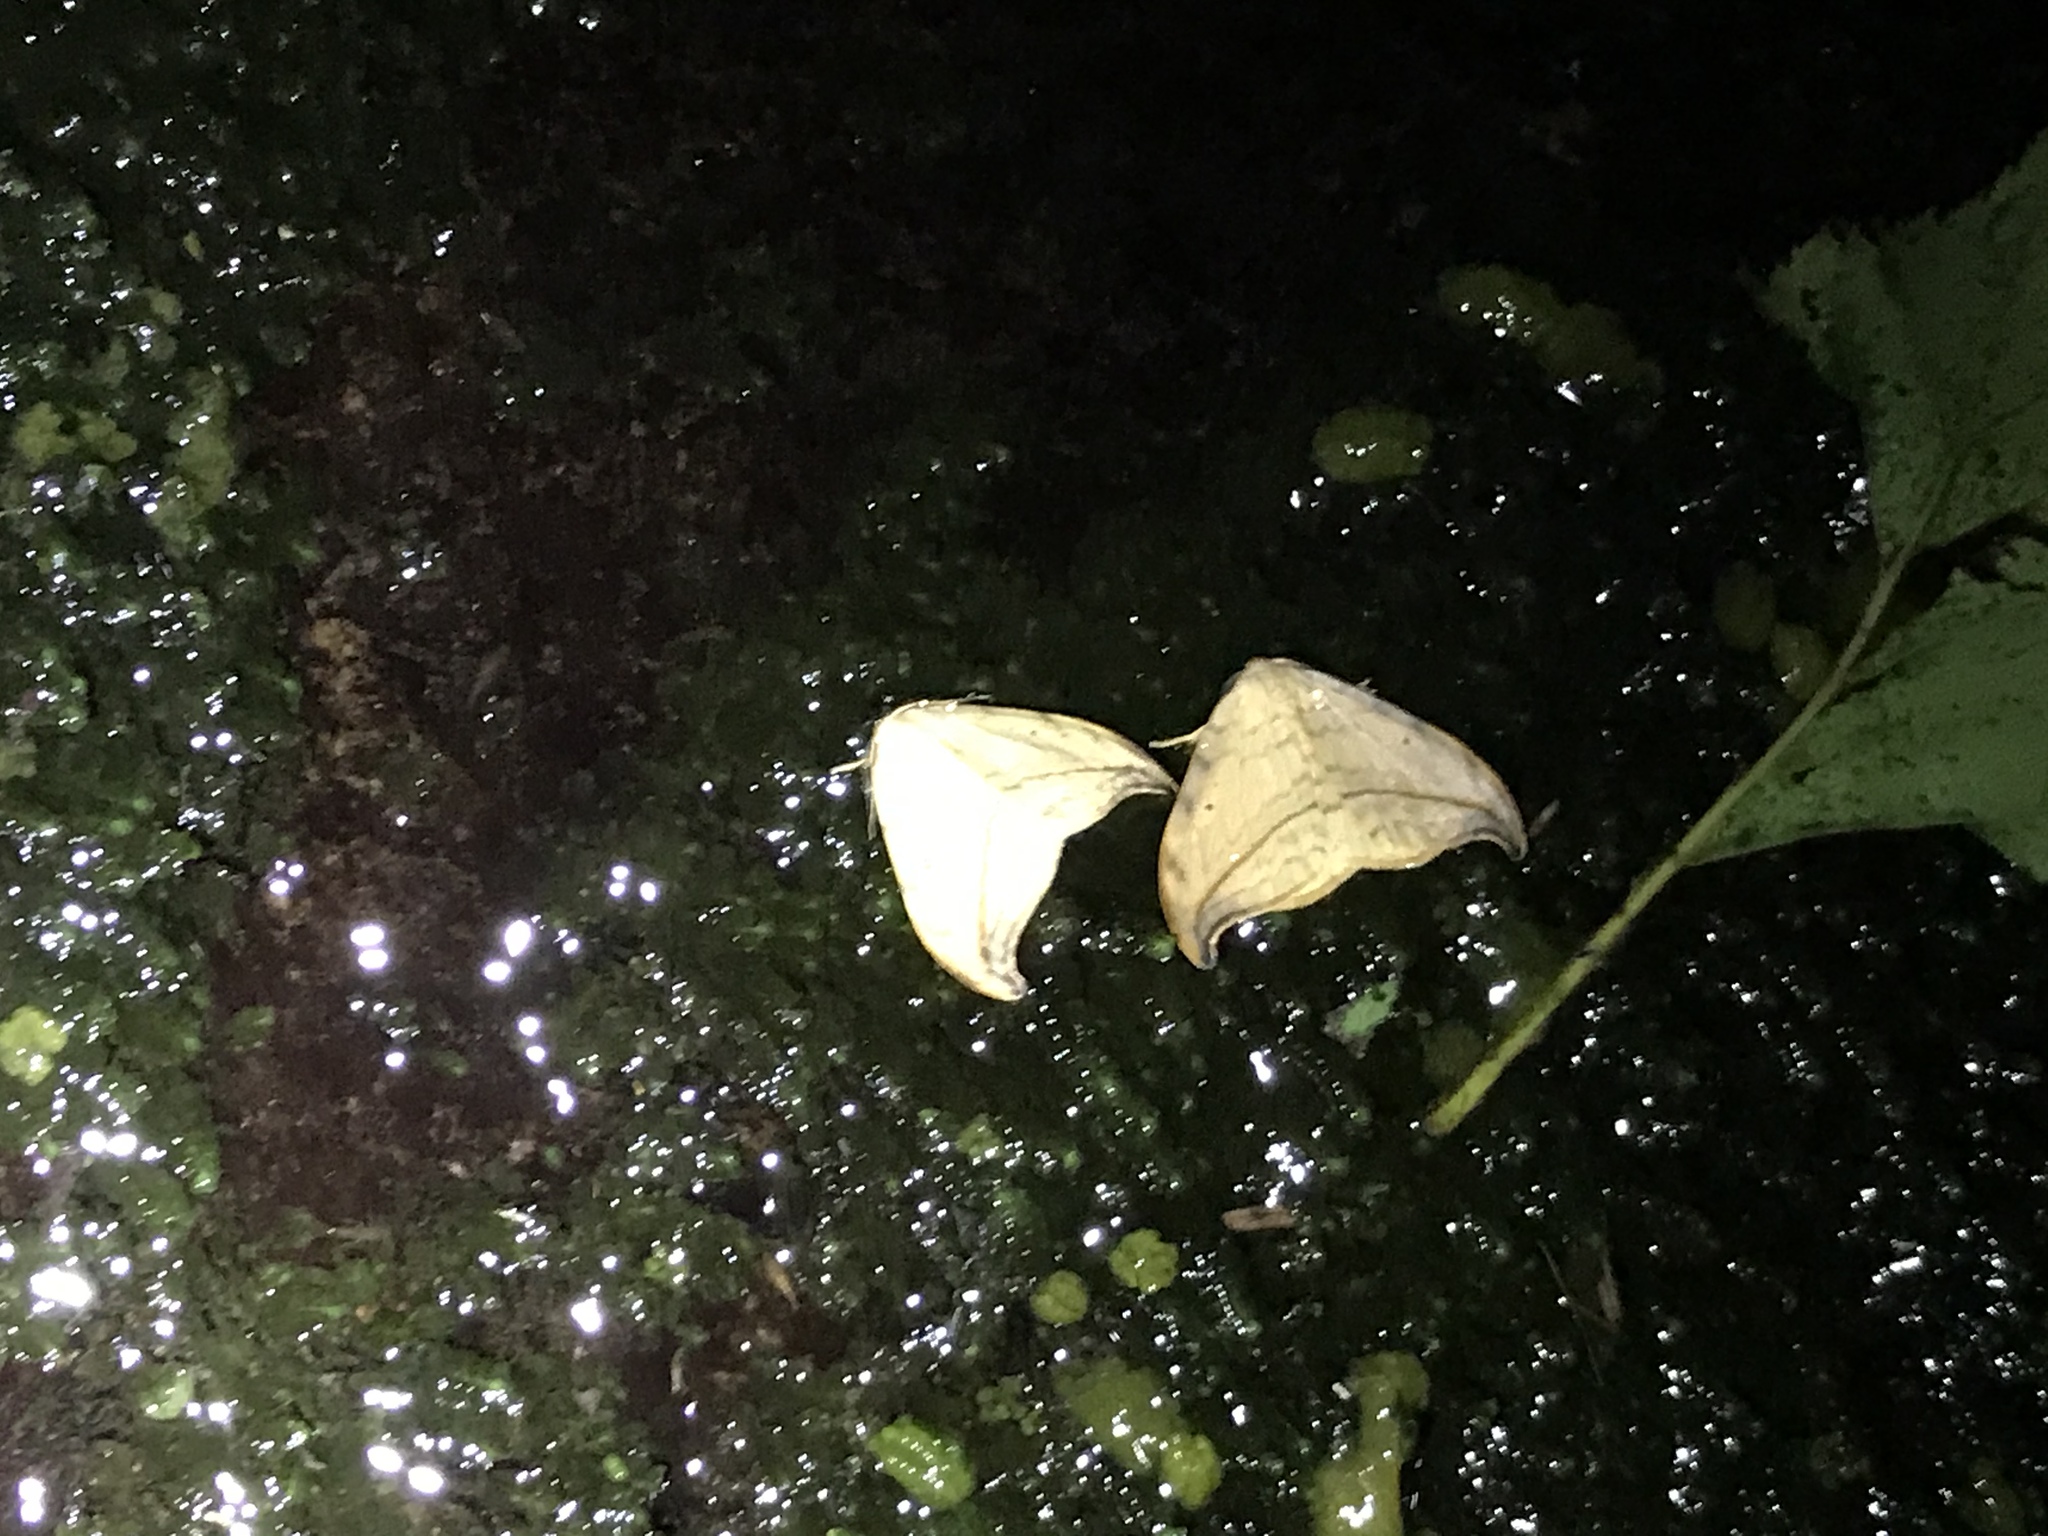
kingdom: Animalia
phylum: Arthropoda
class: Insecta
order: Lepidoptera
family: Drepanidae
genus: Drepana
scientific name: Drepana arcuata
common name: Arched hooktip moth
